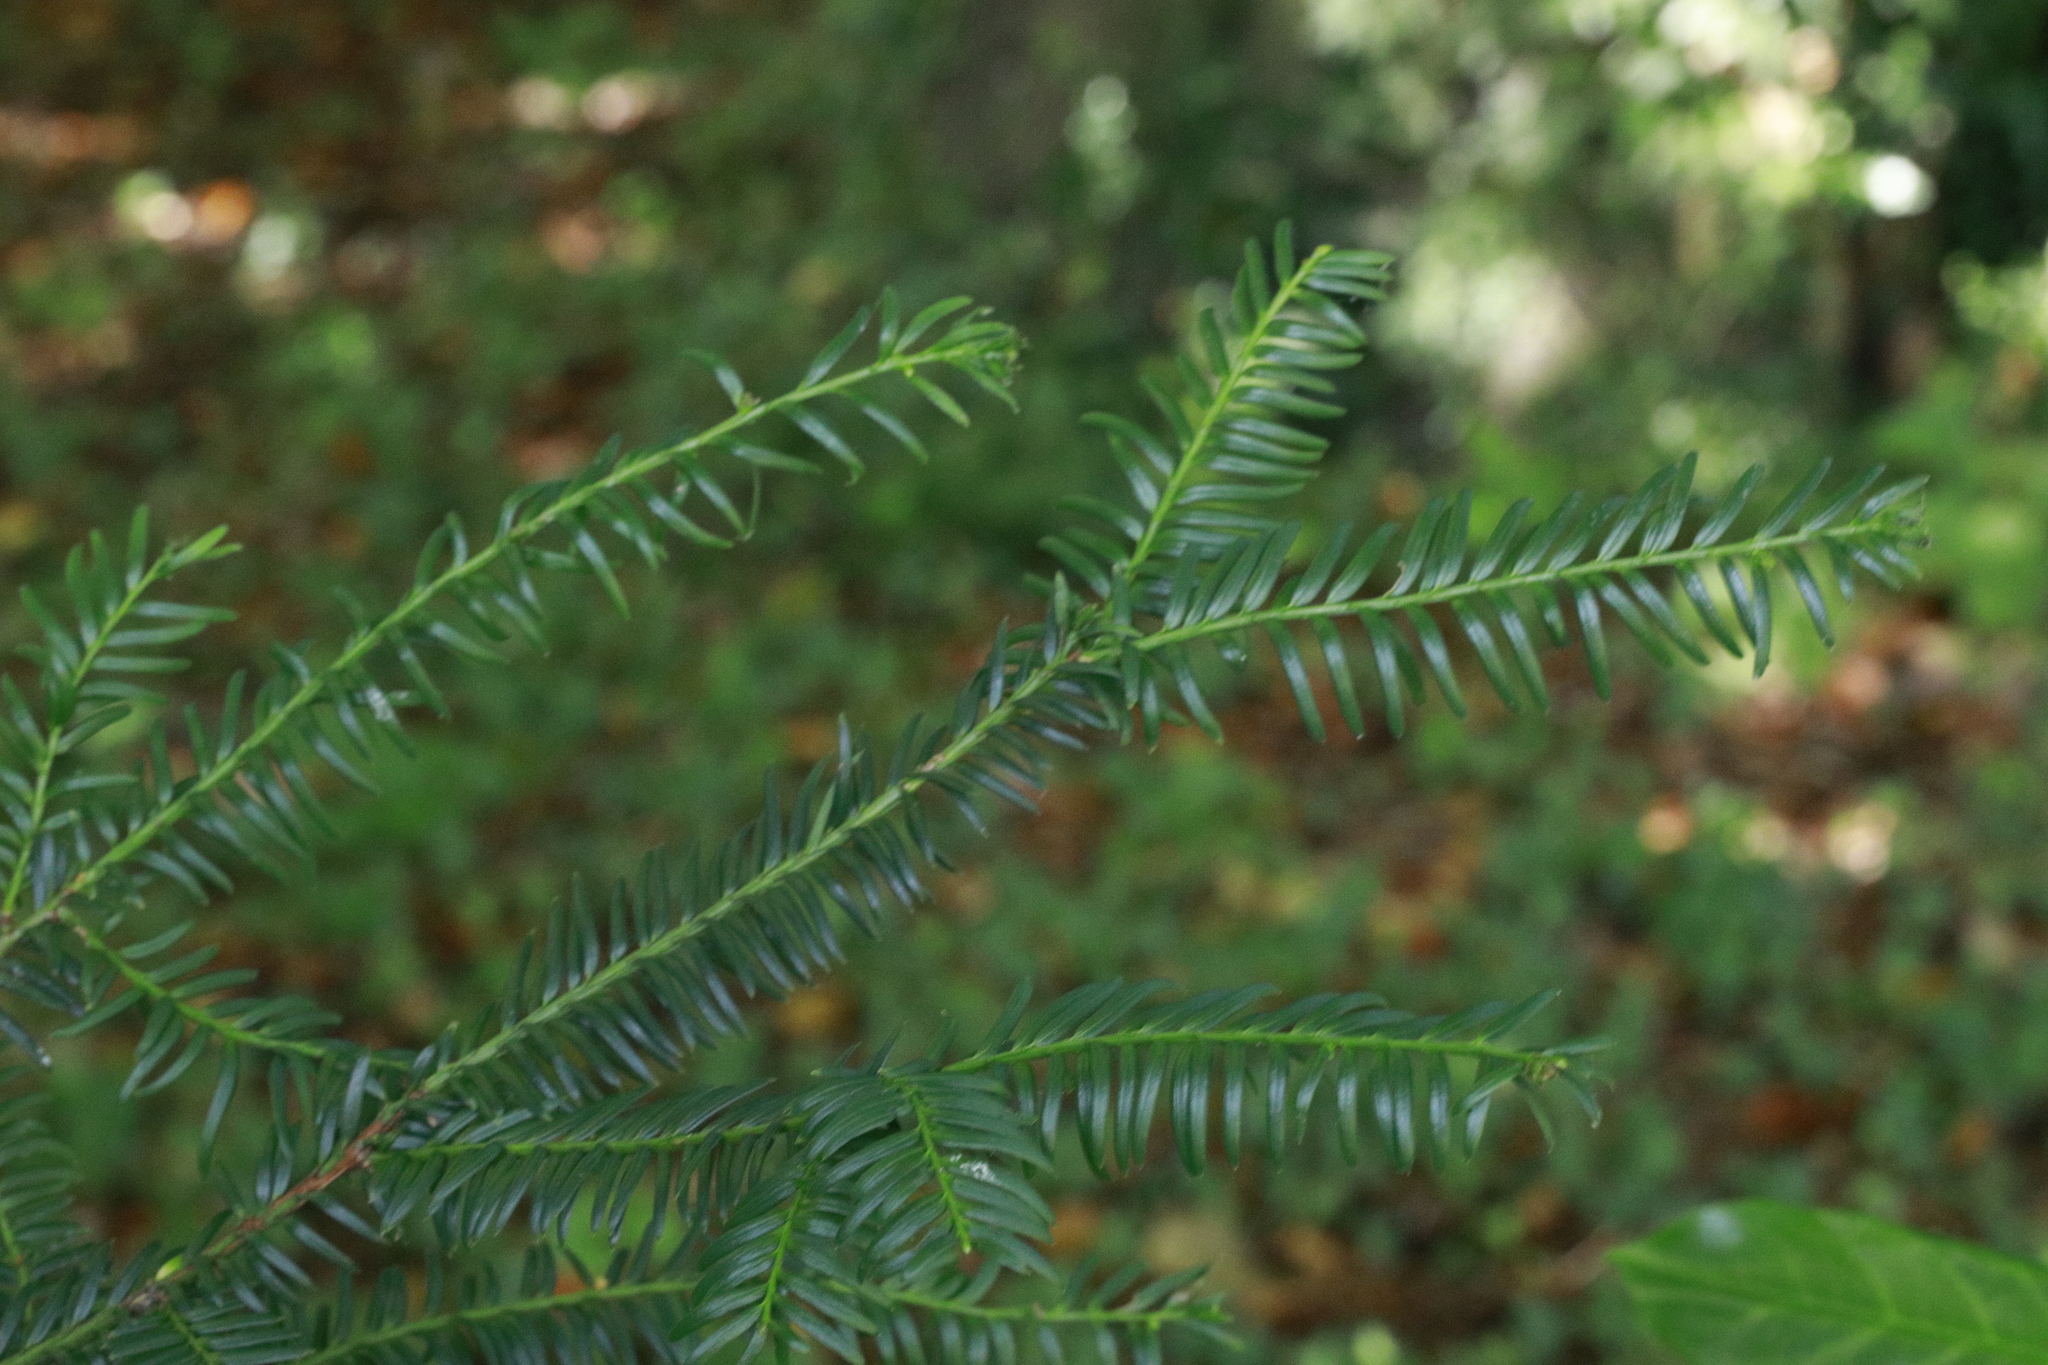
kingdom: Plantae
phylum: Tracheophyta
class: Pinopsida
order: Pinales
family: Taxaceae
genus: Taxus
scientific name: Taxus baccata
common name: Yew
